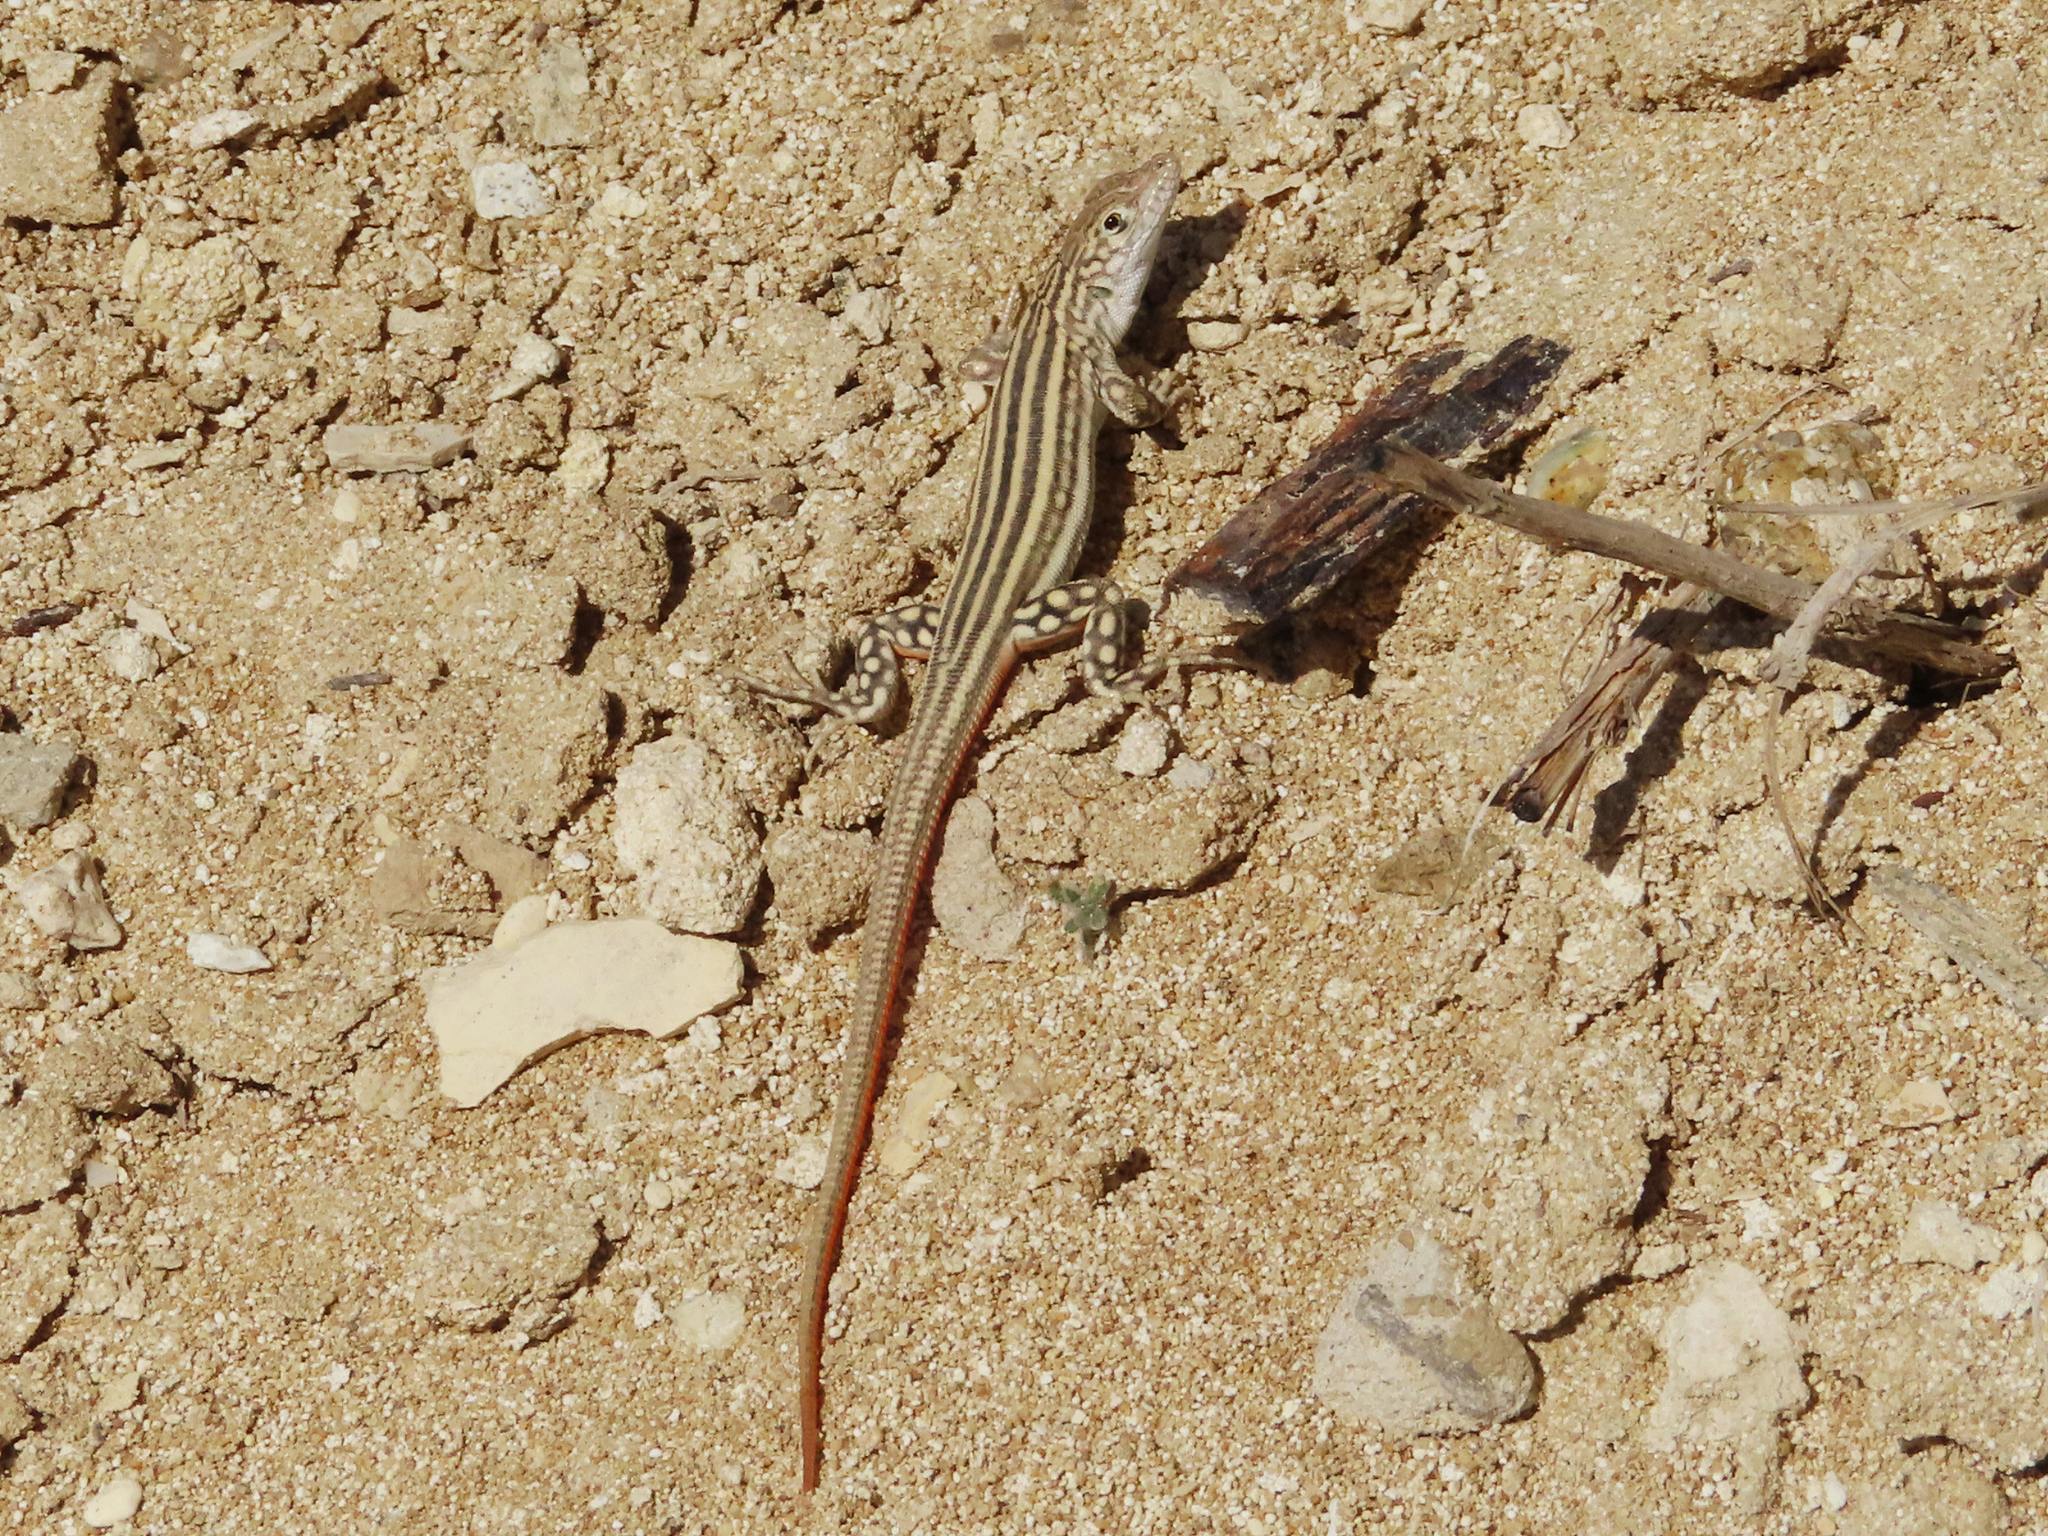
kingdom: Animalia
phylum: Chordata
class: Squamata
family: Lacertidae
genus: Eremias
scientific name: Eremias velox
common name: Central asian racerunner
